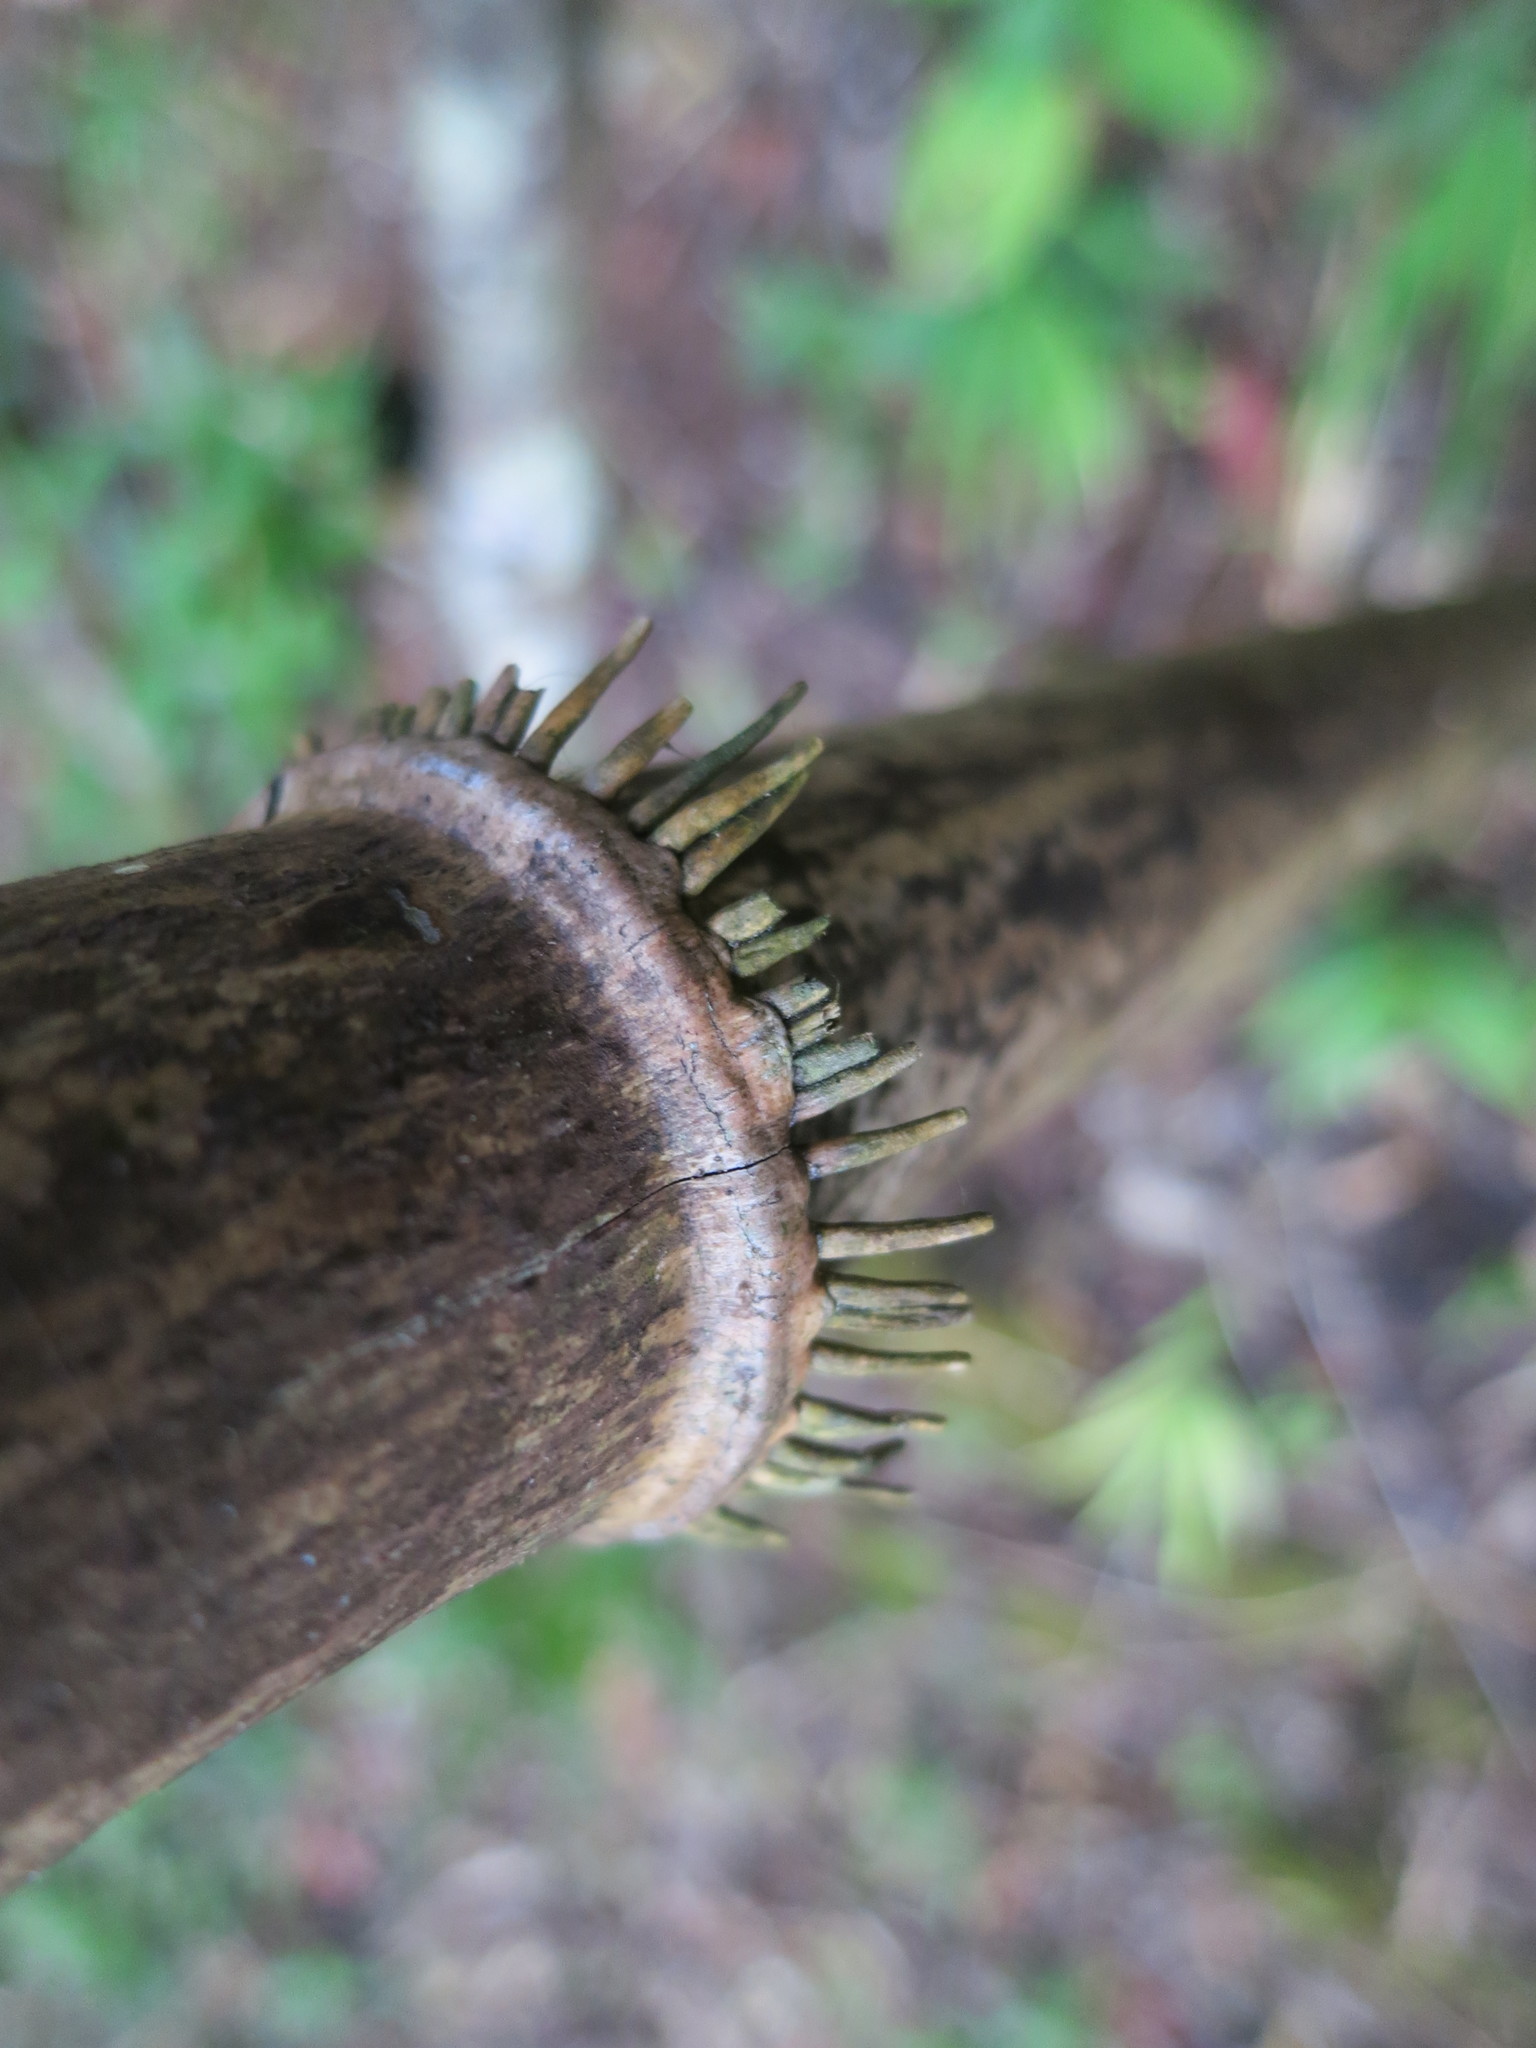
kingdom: Plantae
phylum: Tracheophyta
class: Liliopsida
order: Poales
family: Poaceae
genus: Oldeania
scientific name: Oldeania itremoensis
